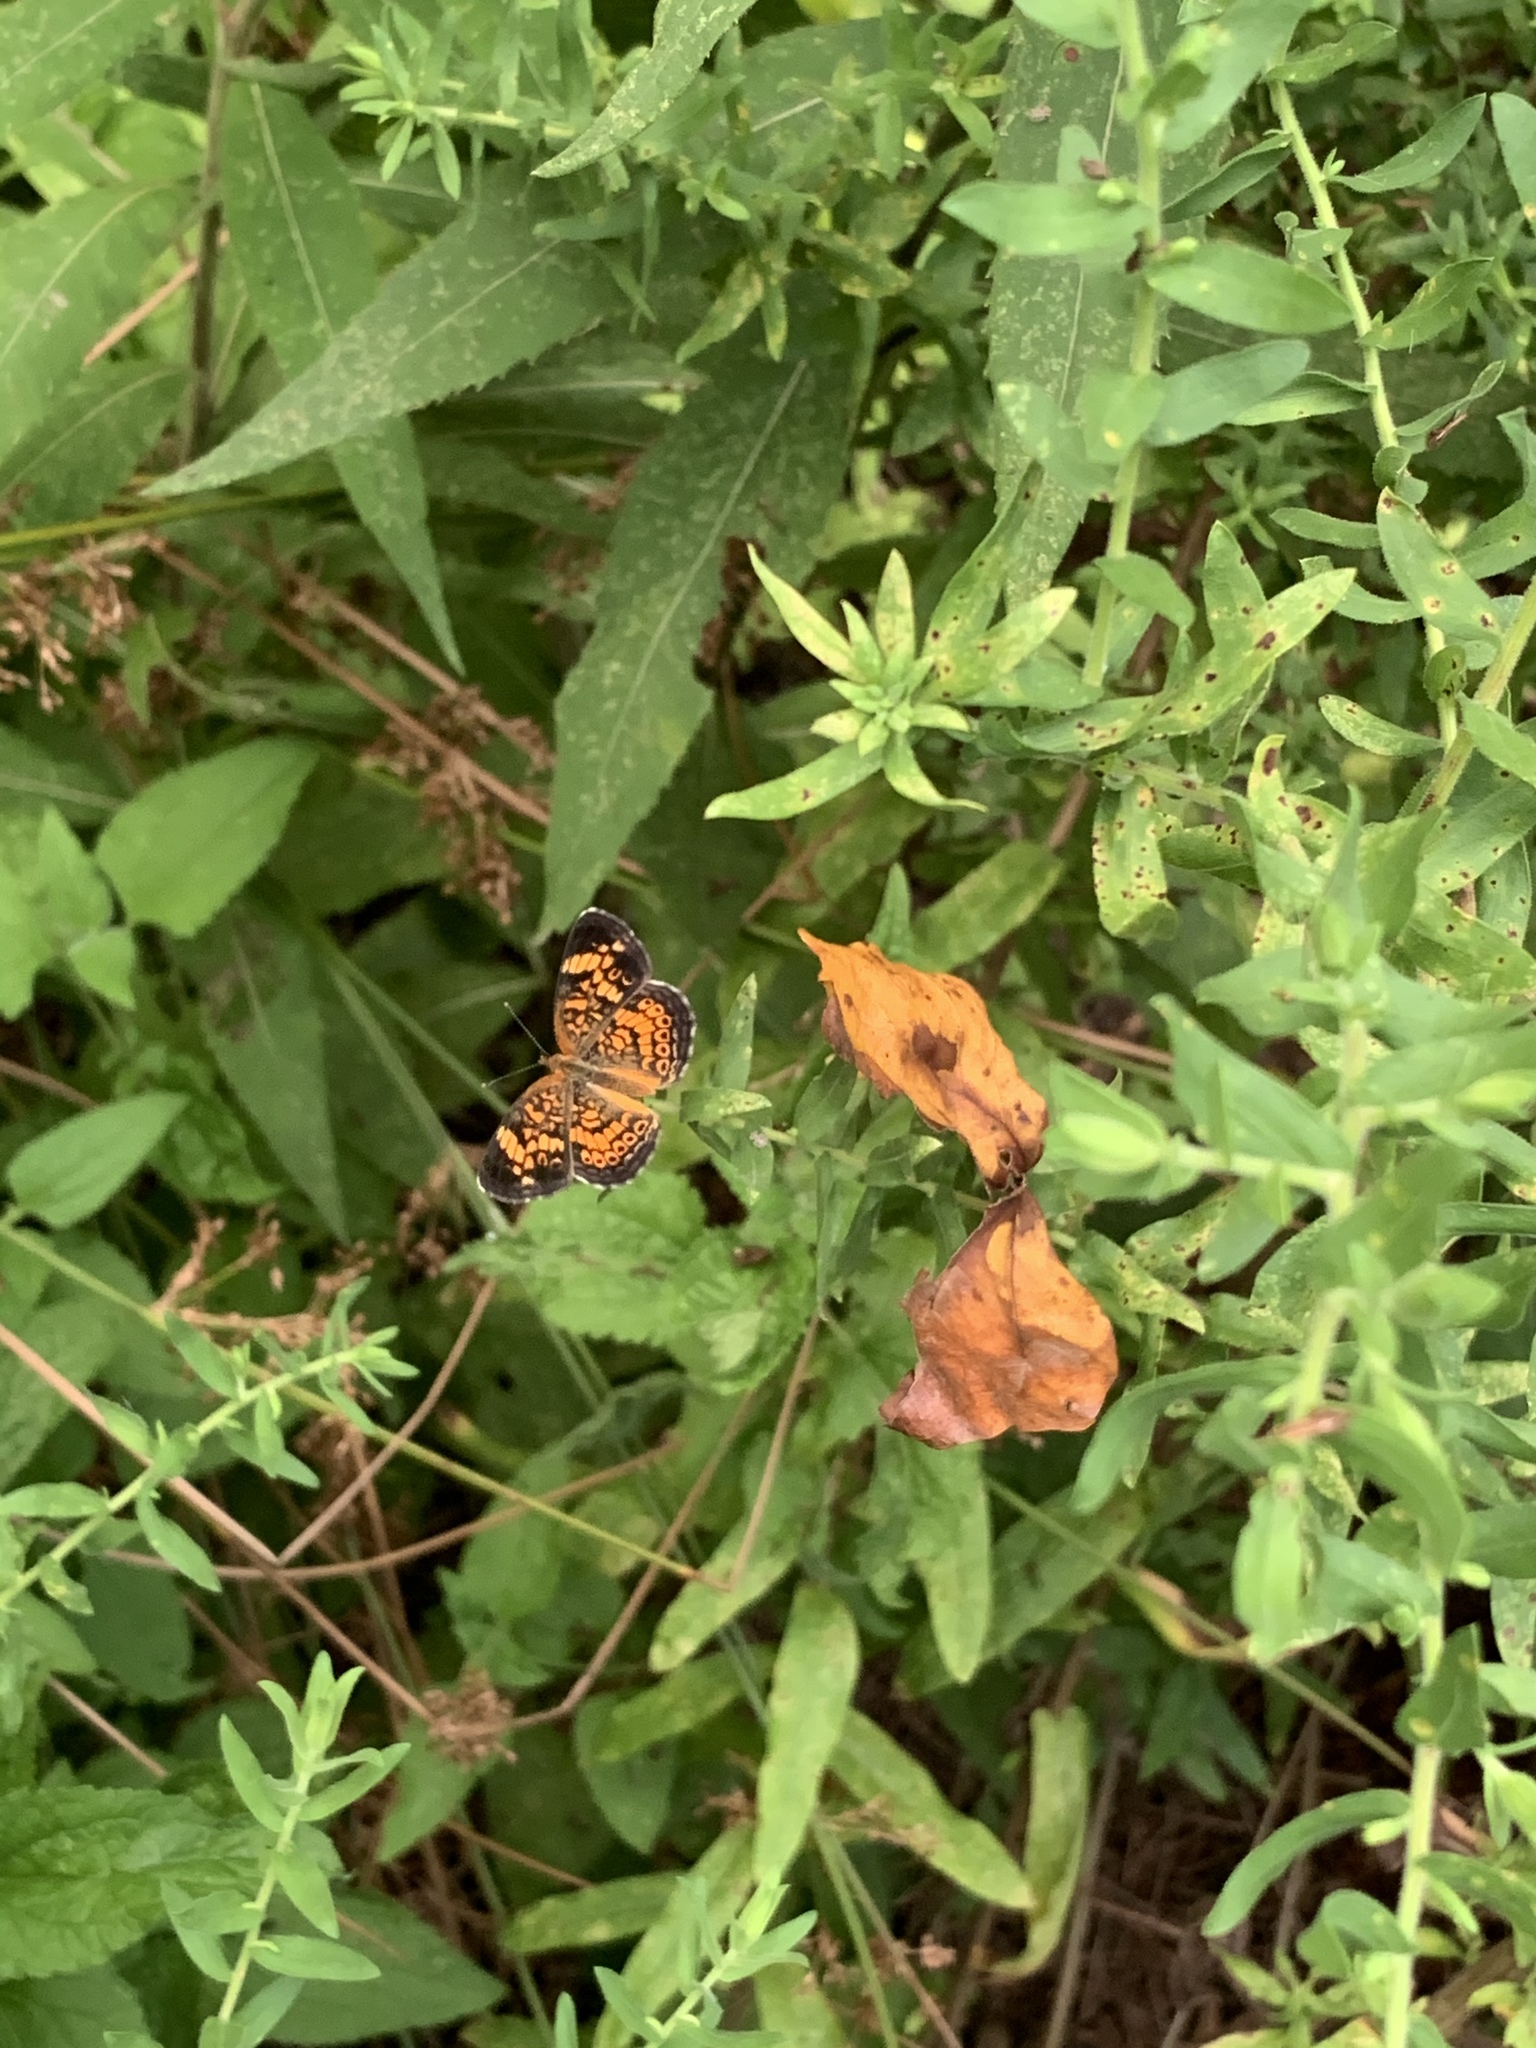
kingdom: Animalia
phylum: Arthropoda
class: Insecta
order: Lepidoptera
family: Nymphalidae
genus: Phyciodes
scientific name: Phyciodes tharos
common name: Pearl crescent
